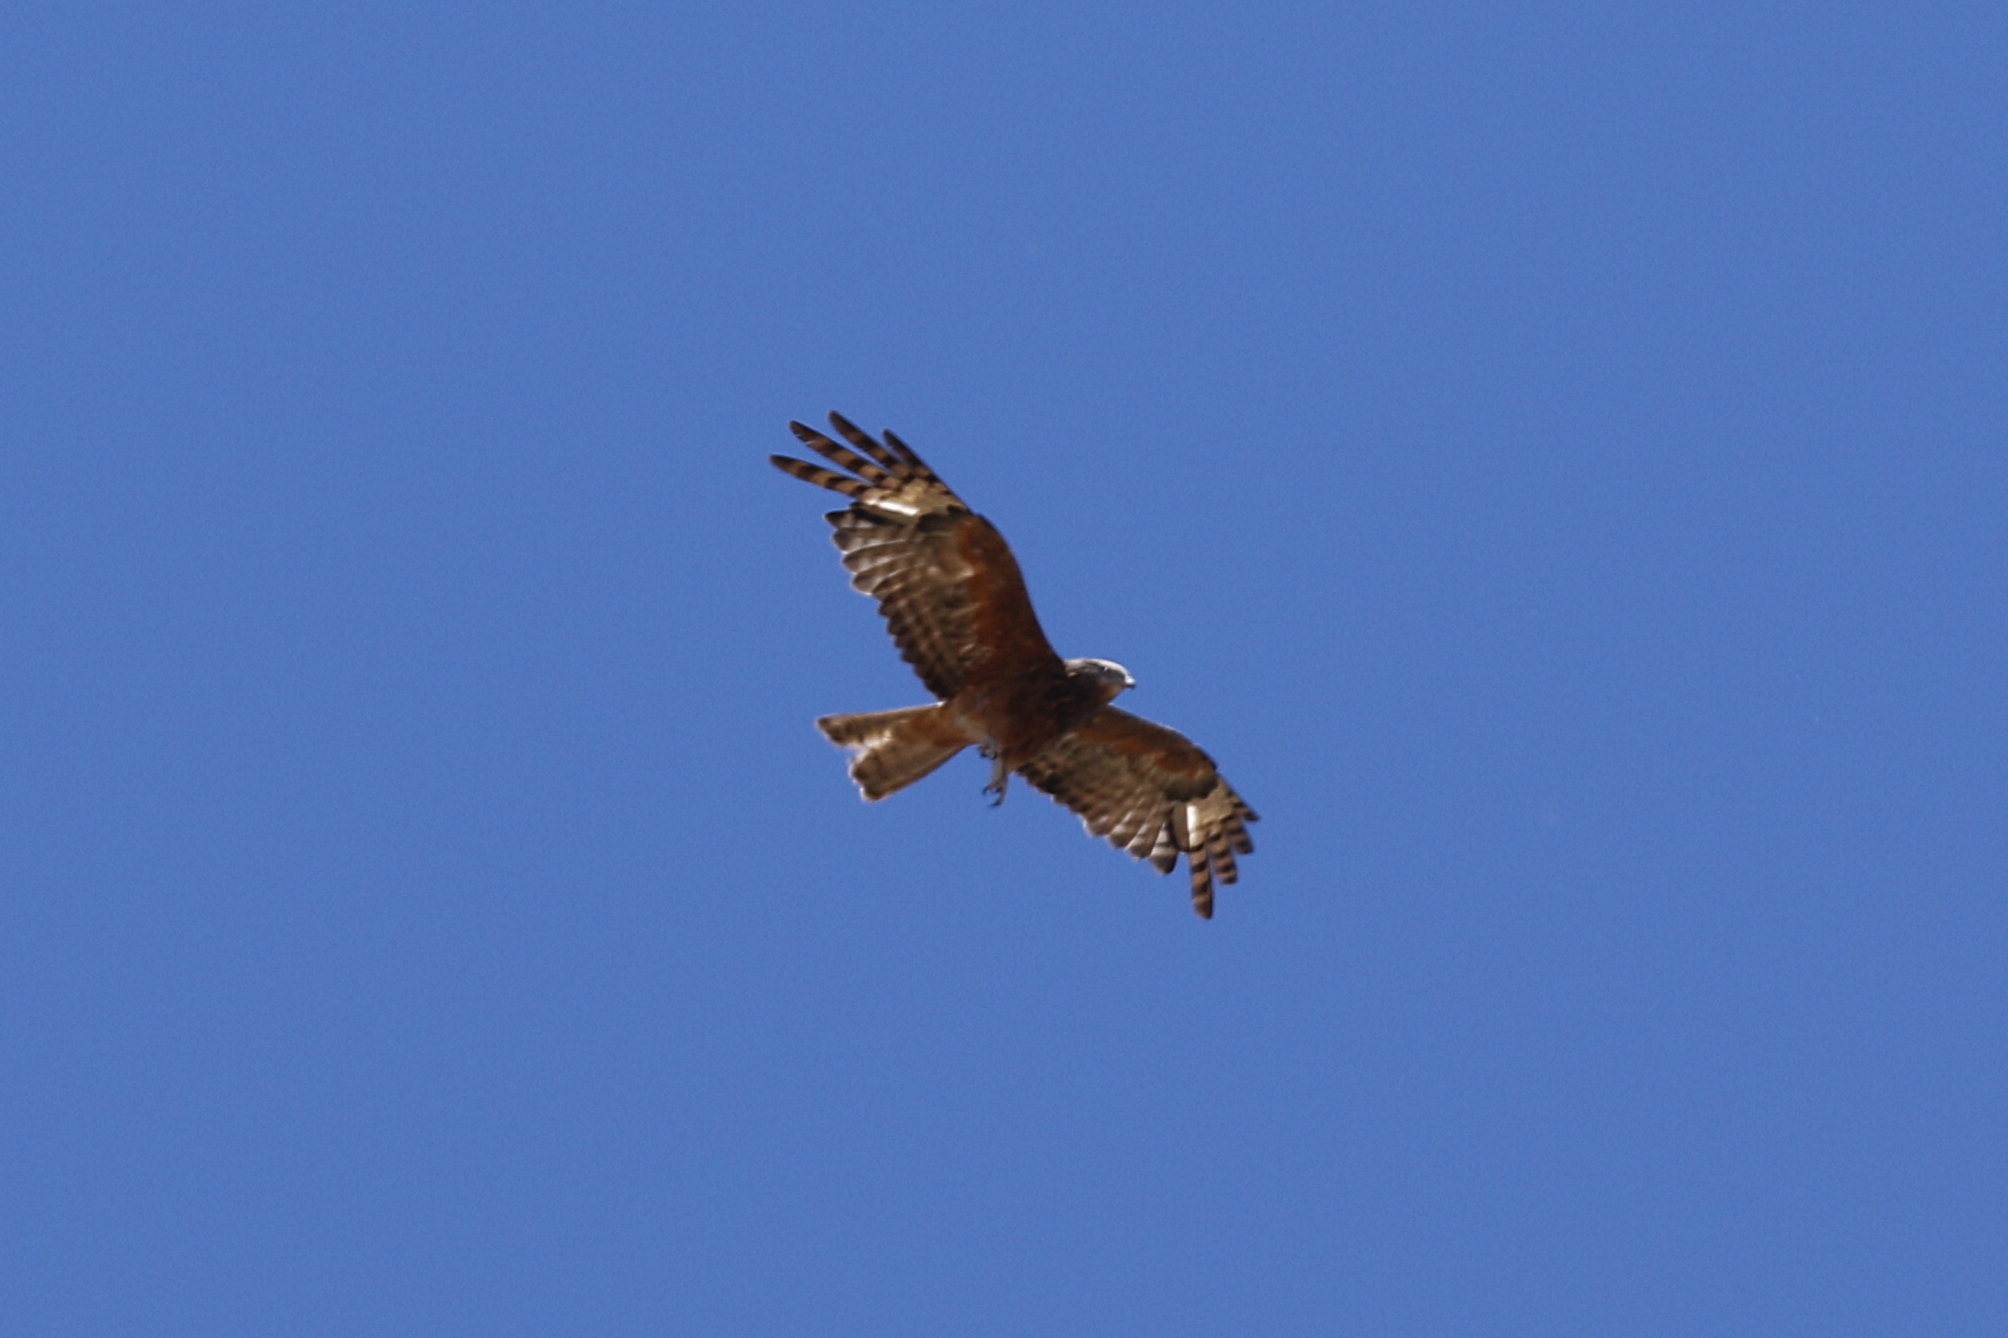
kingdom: Animalia
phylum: Chordata
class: Aves
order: Accipitriformes
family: Accipitridae
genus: Lophoictinia
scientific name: Lophoictinia isura
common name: Square-tailed kite
